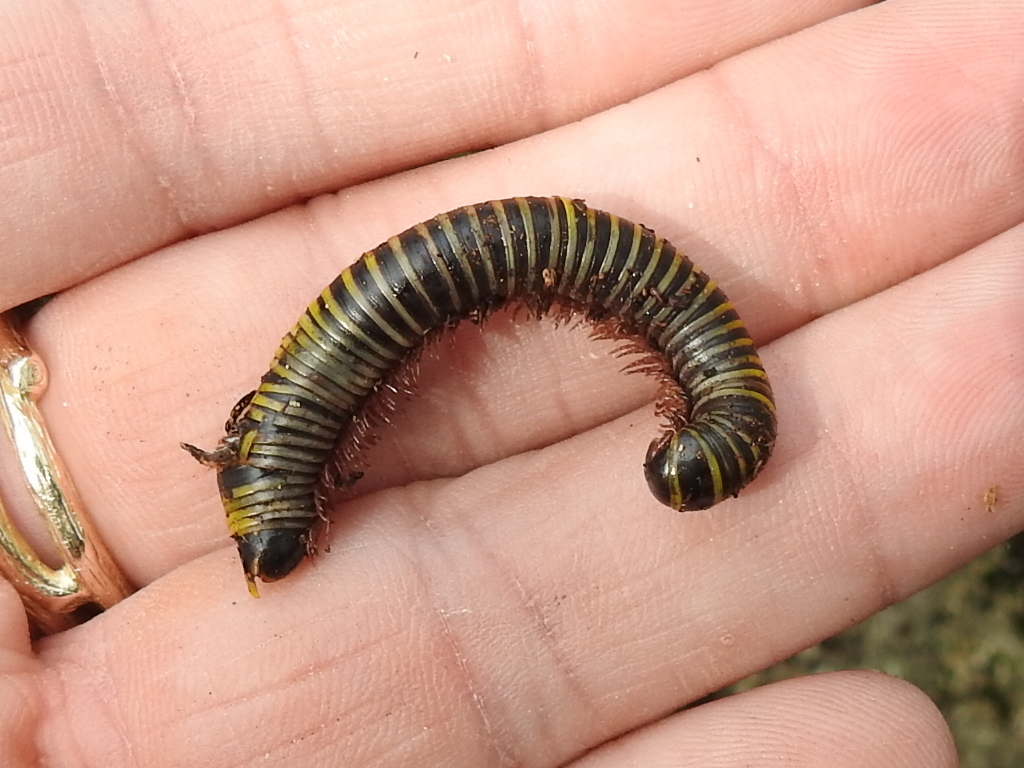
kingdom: Animalia
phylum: Arthropoda
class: Diplopoda
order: Spirobolida
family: Rhinocricidae
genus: Anadenobolus
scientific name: Anadenobolus monilicornis
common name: Caribbean millipede
